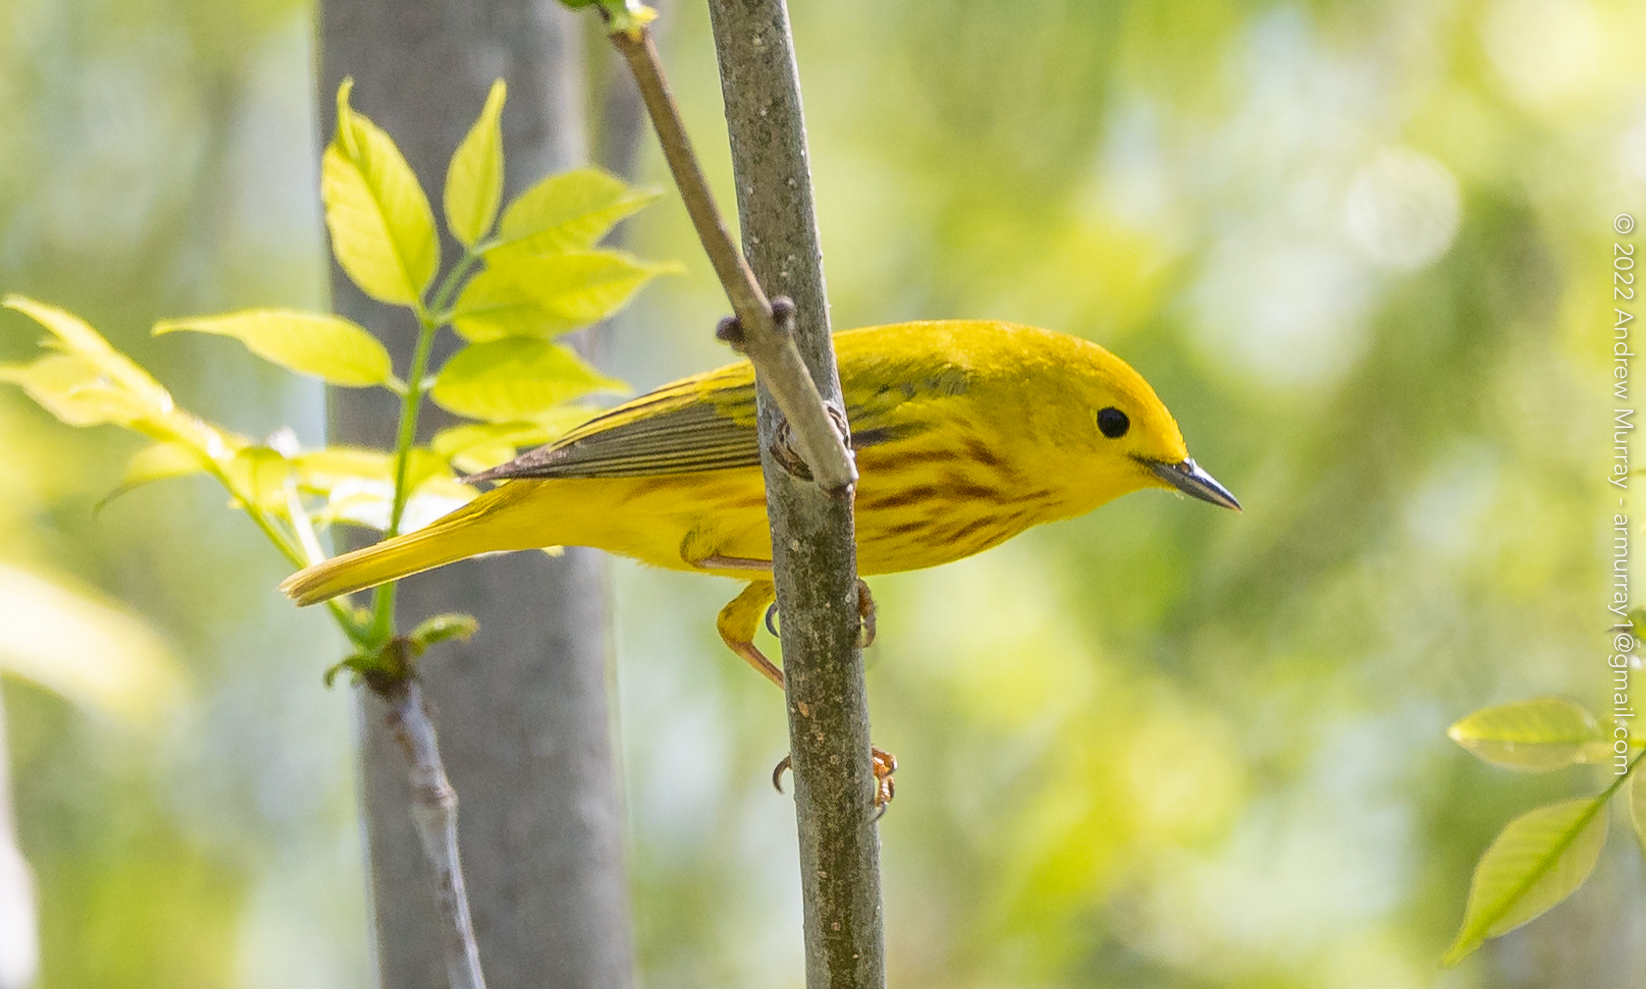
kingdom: Animalia
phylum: Chordata
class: Aves
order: Passeriformes
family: Parulidae
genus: Setophaga
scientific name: Setophaga petechia
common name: Yellow warbler
